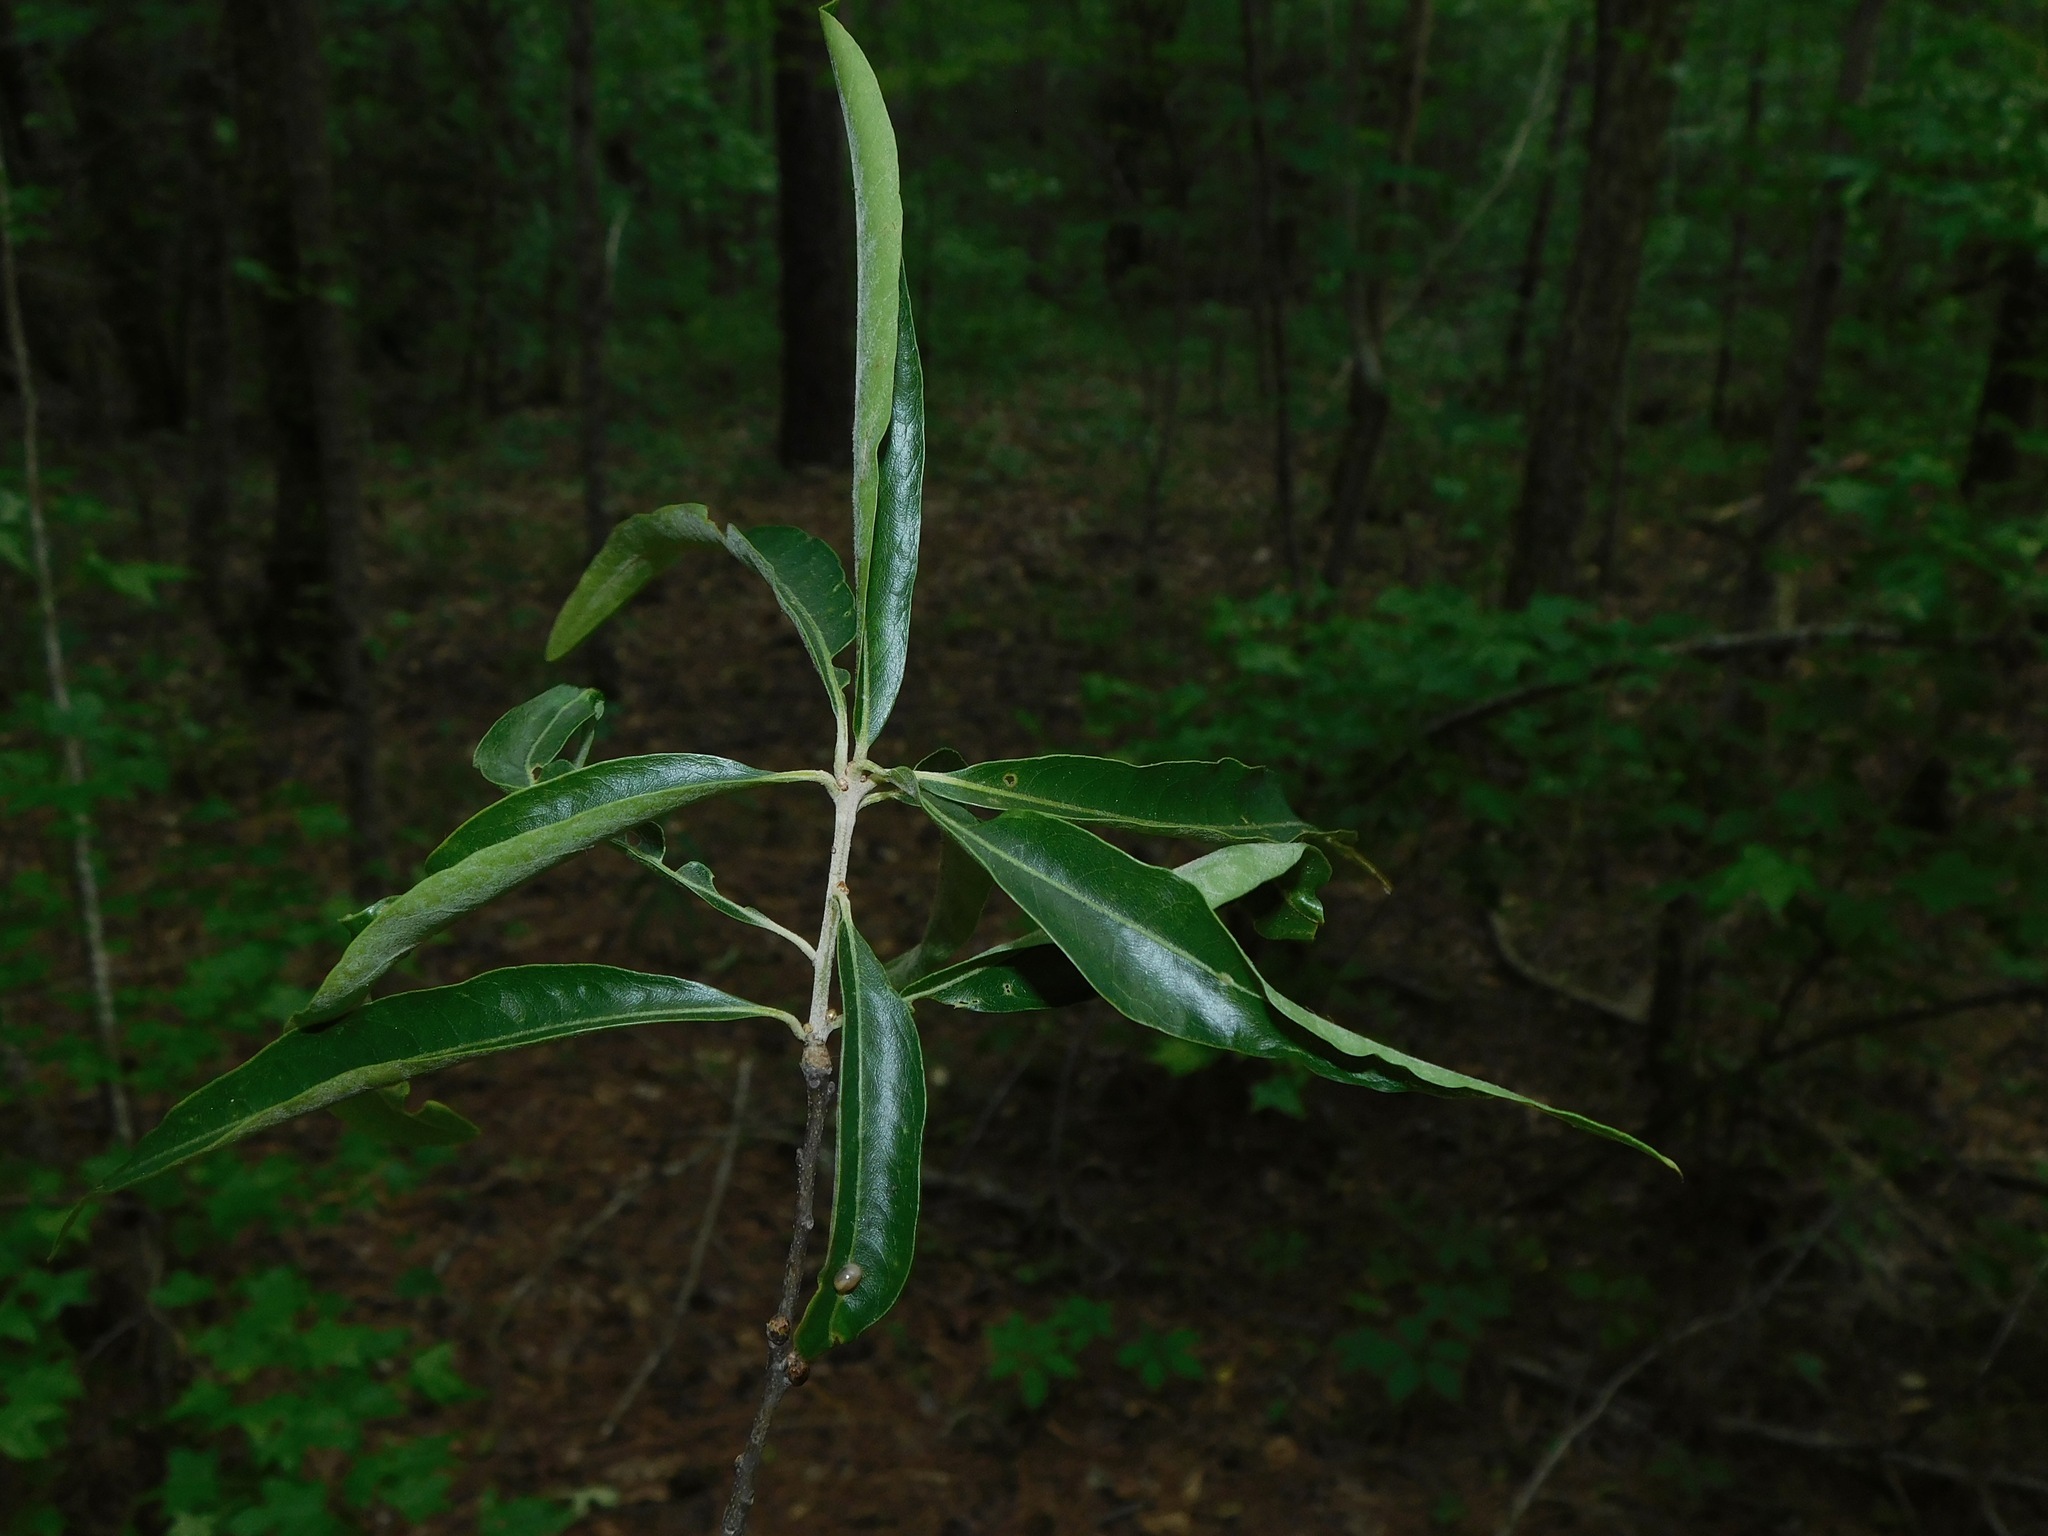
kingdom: Plantae
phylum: Tracheophyta
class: Magnoliopsida
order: Fagales
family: Fagaceae
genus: Quercus
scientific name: Quercus phellos
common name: Willow oak
